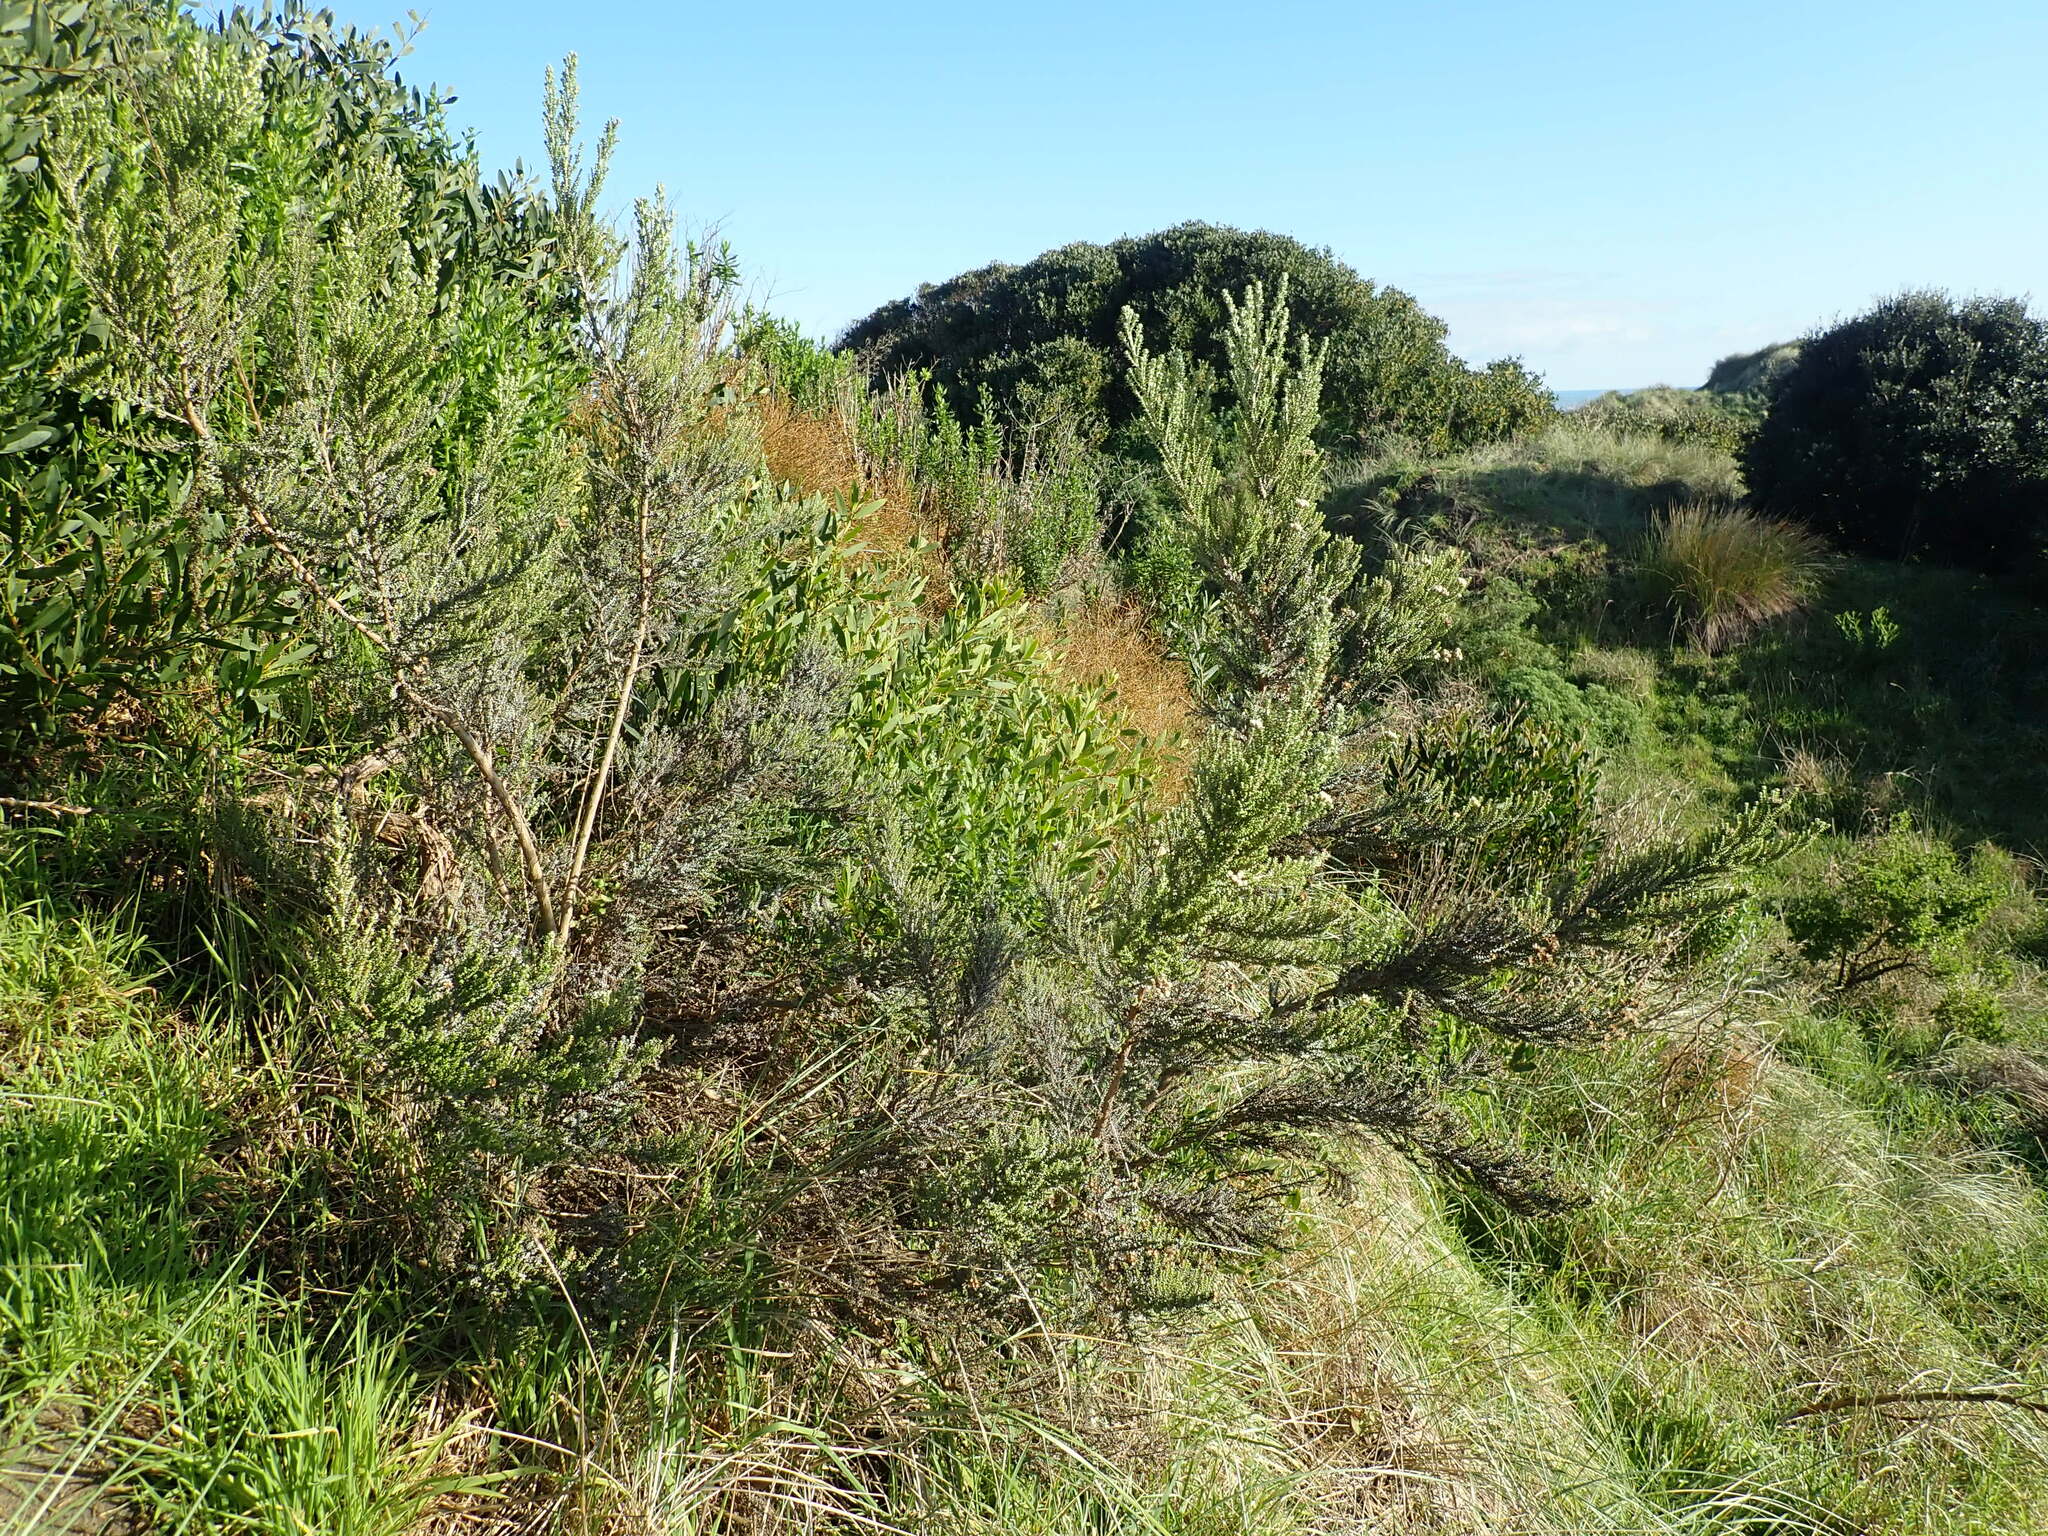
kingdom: Plantae
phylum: Tracheophyta
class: Magnoliopsida
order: Asterales
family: Asteraceae
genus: Ozothamnus
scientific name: Ozothamnus leptophyllus
